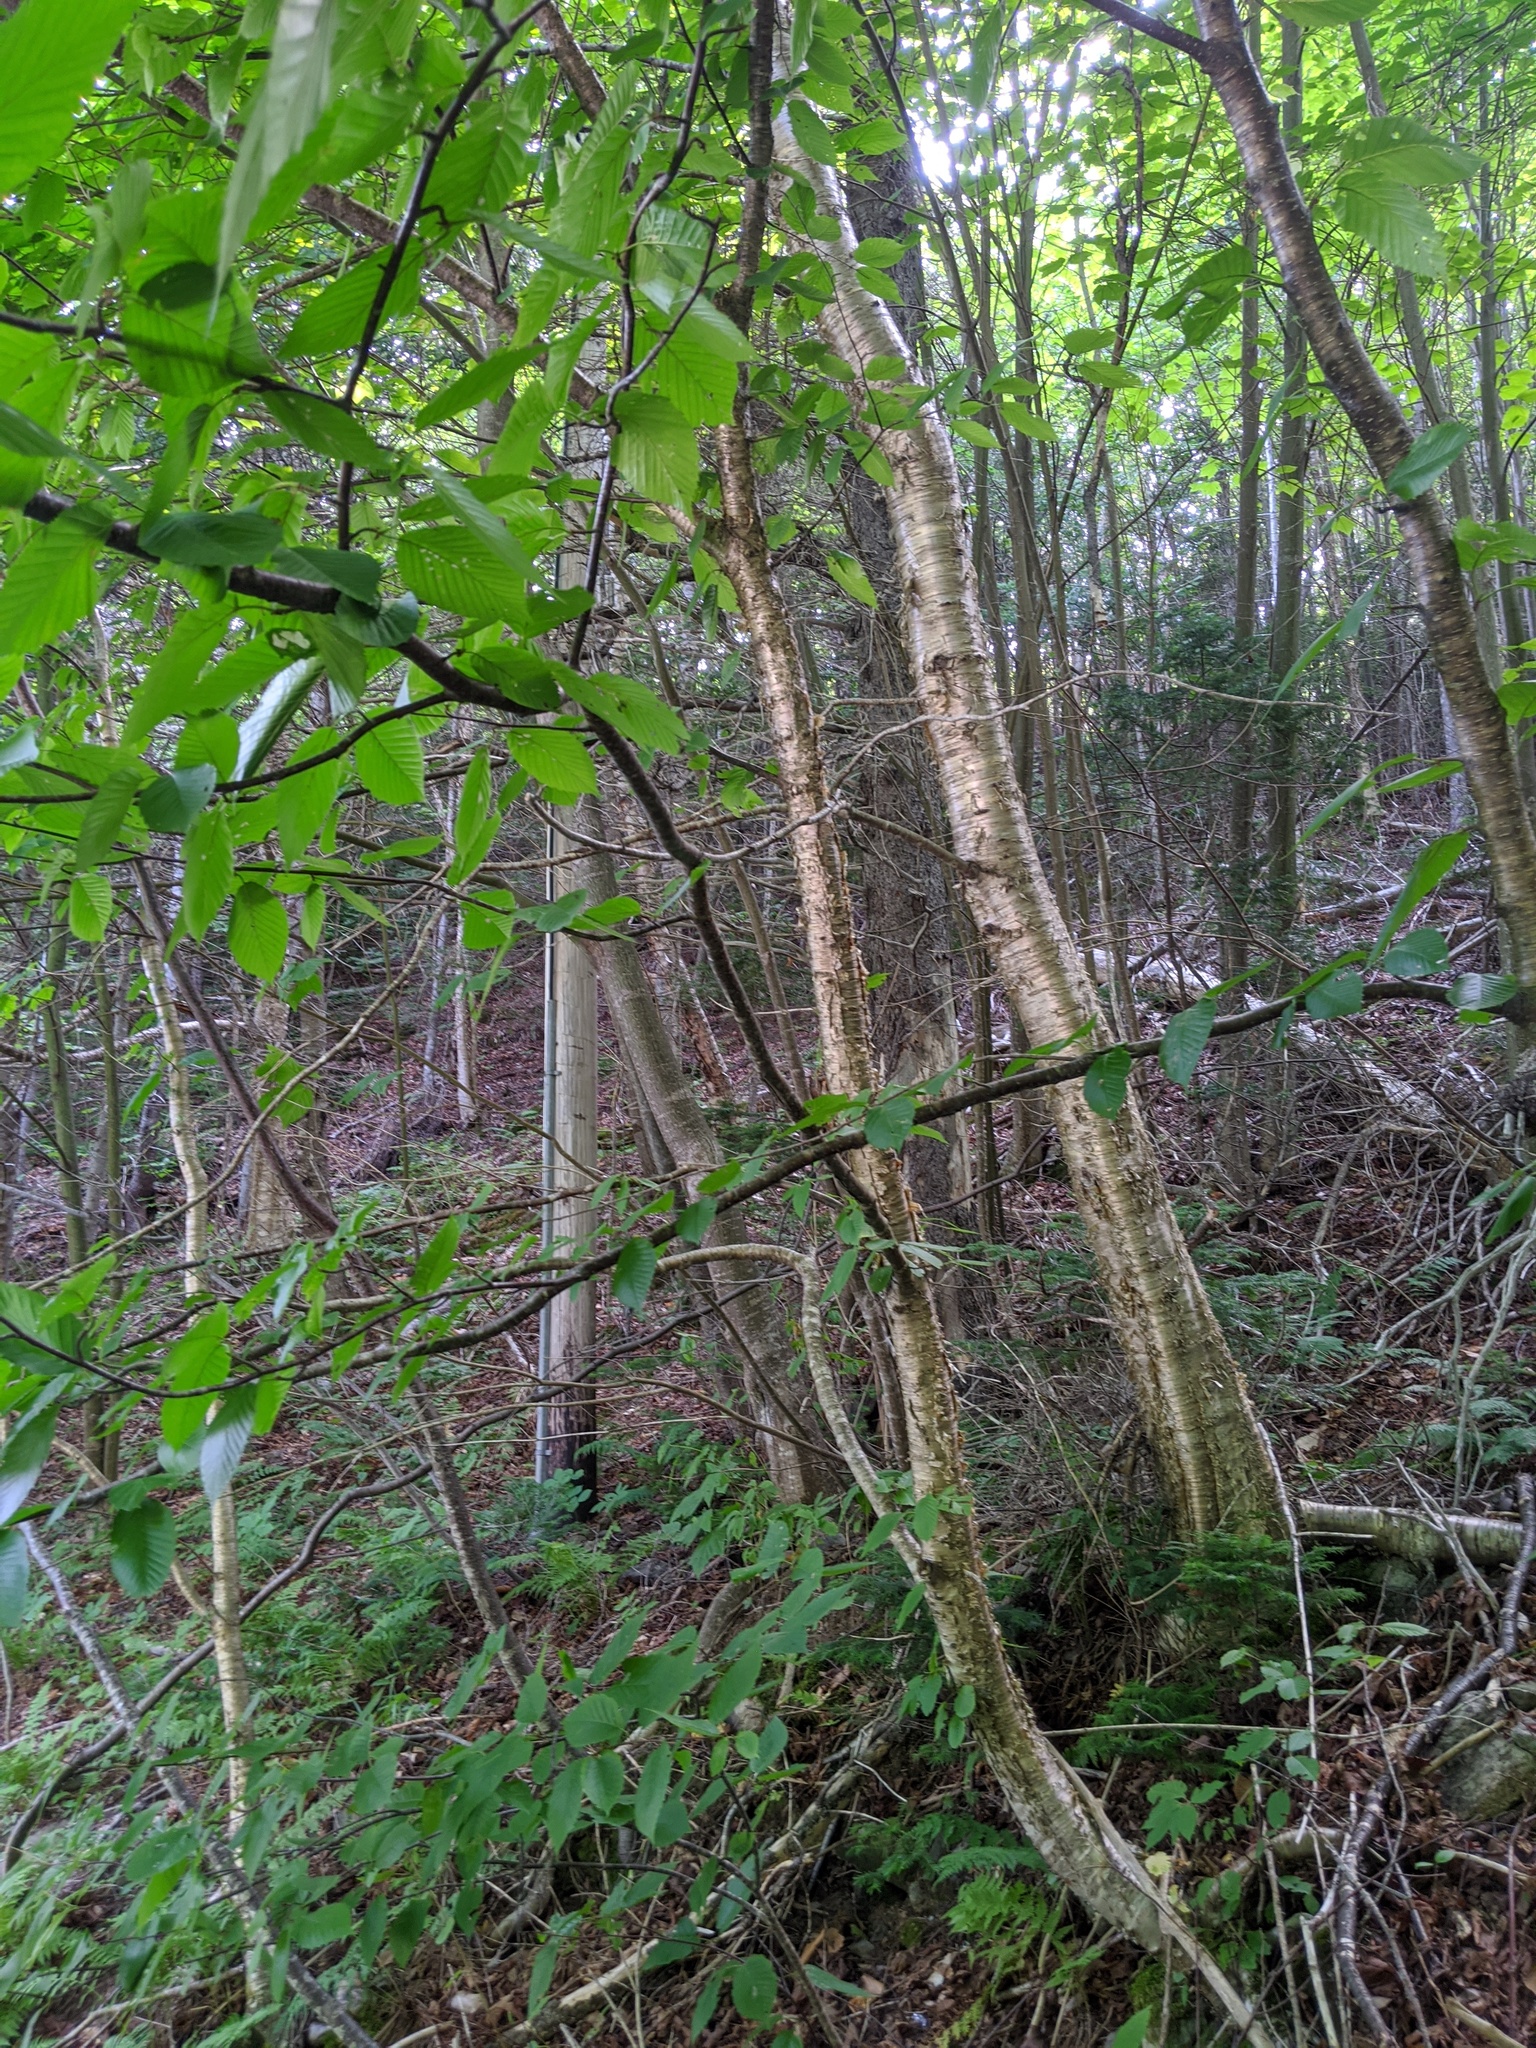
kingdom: Plantae
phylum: Tracheophyta
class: Magnoliopsida
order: Fagales
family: Betulaceae
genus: Betula
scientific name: Betula alleghaniensis
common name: Yellow birch
